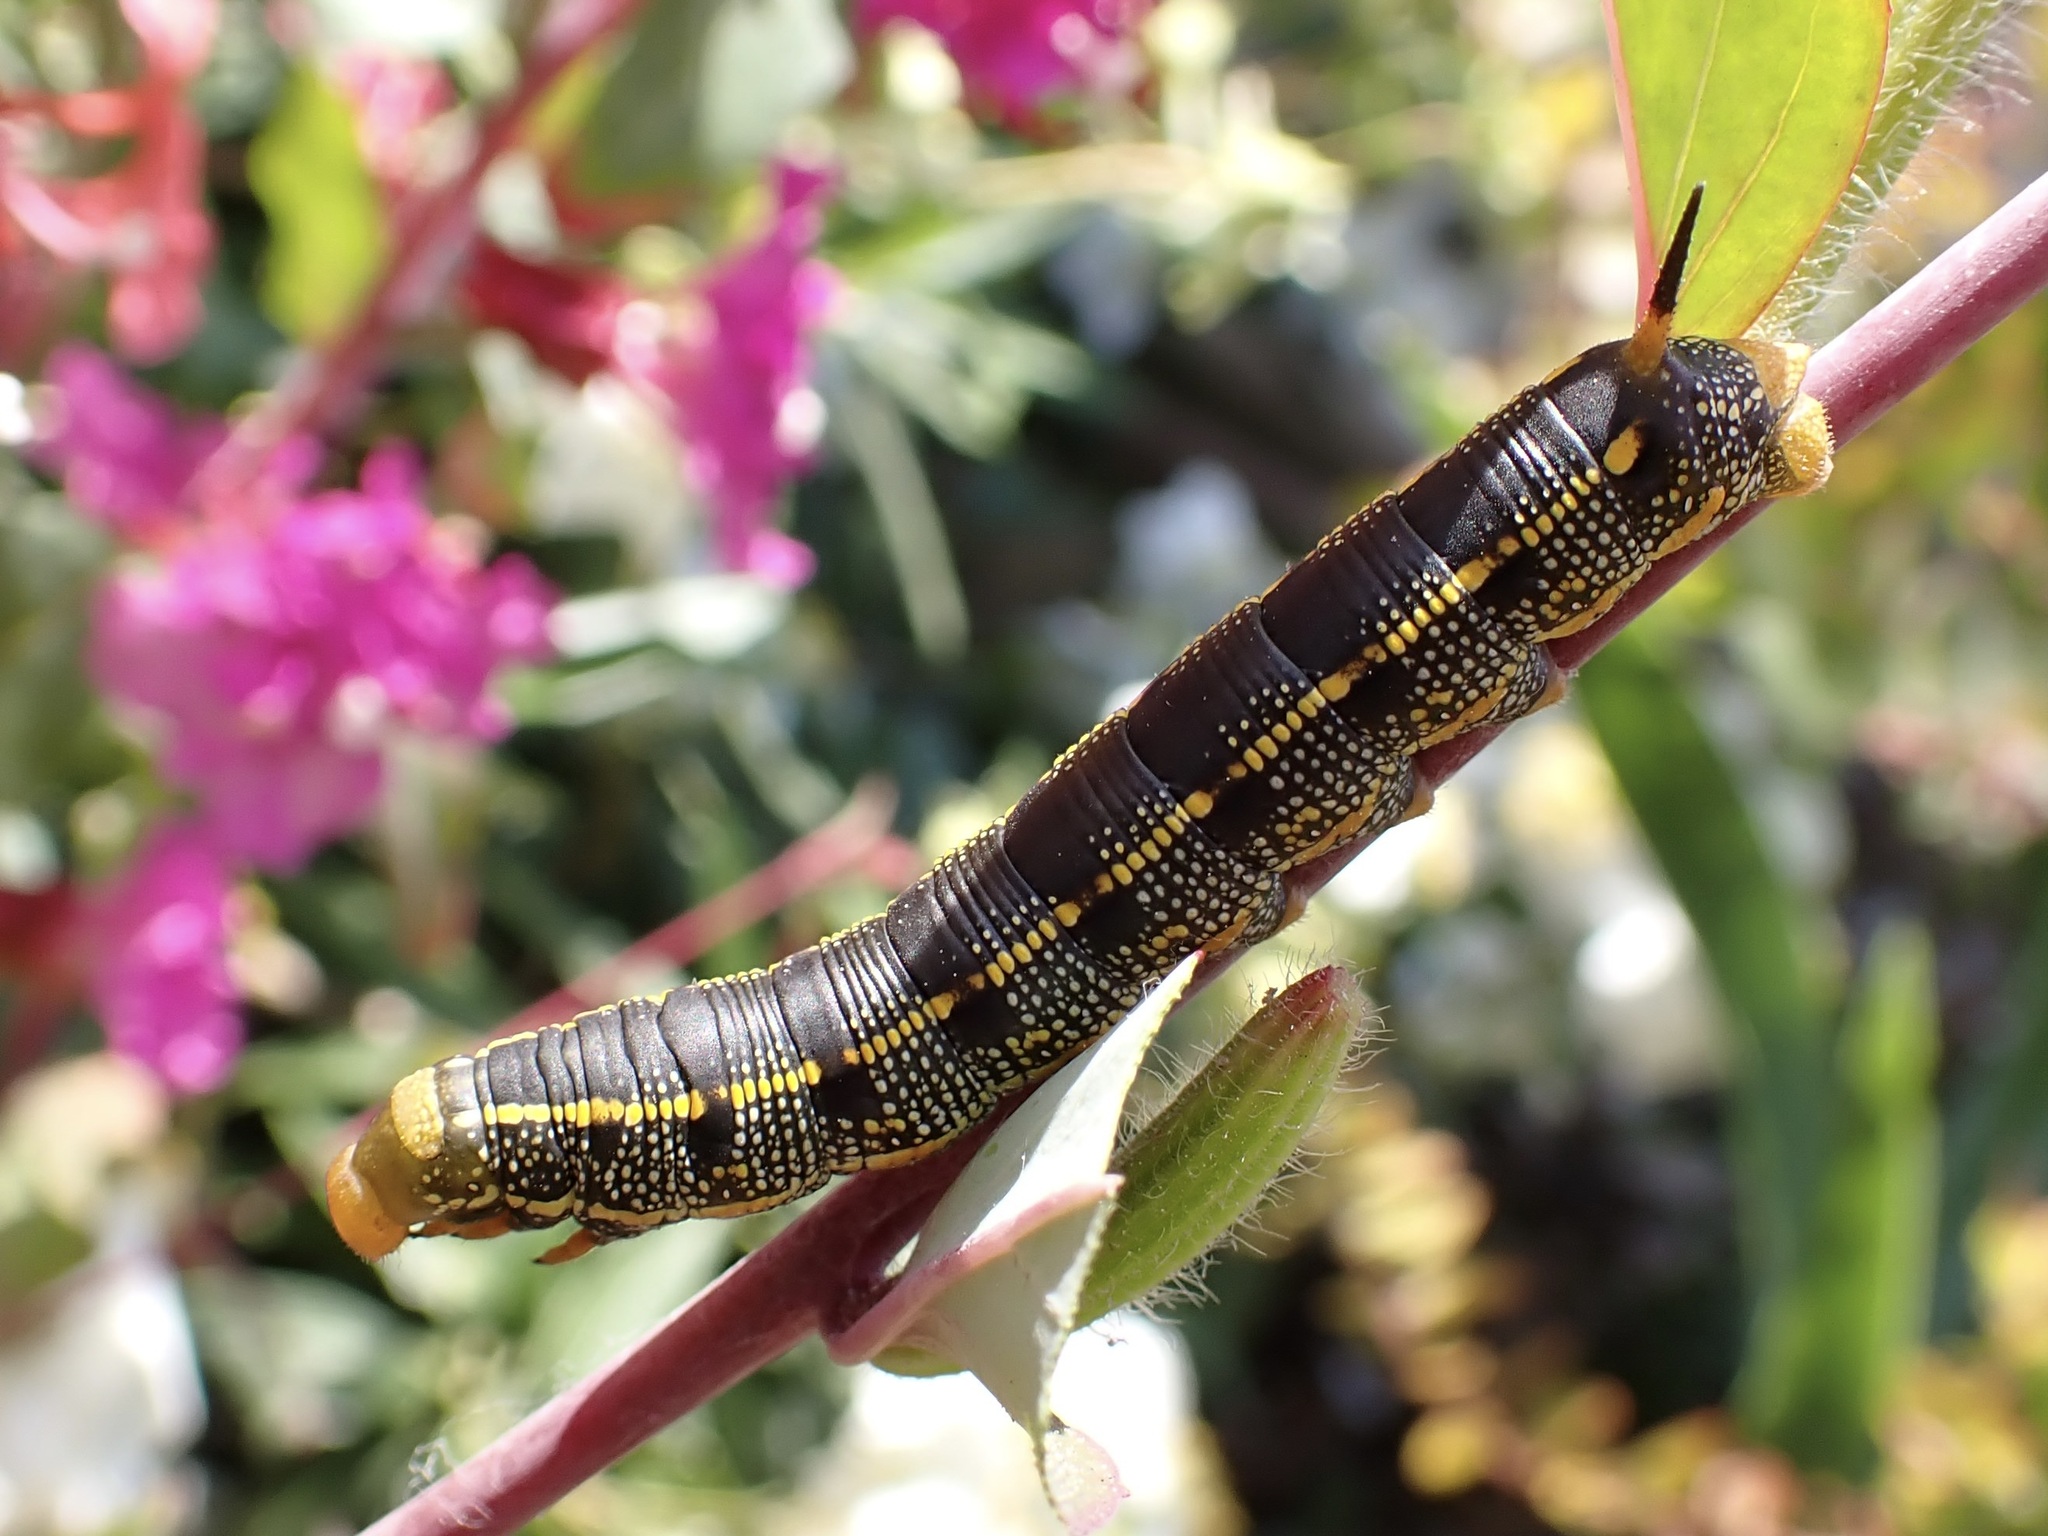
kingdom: Animalia
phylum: Arthropoda
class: Insecta
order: Lepidoptera
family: Sphingidae
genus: Hyles
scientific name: Hyles lineata
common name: White-lined sphinx
